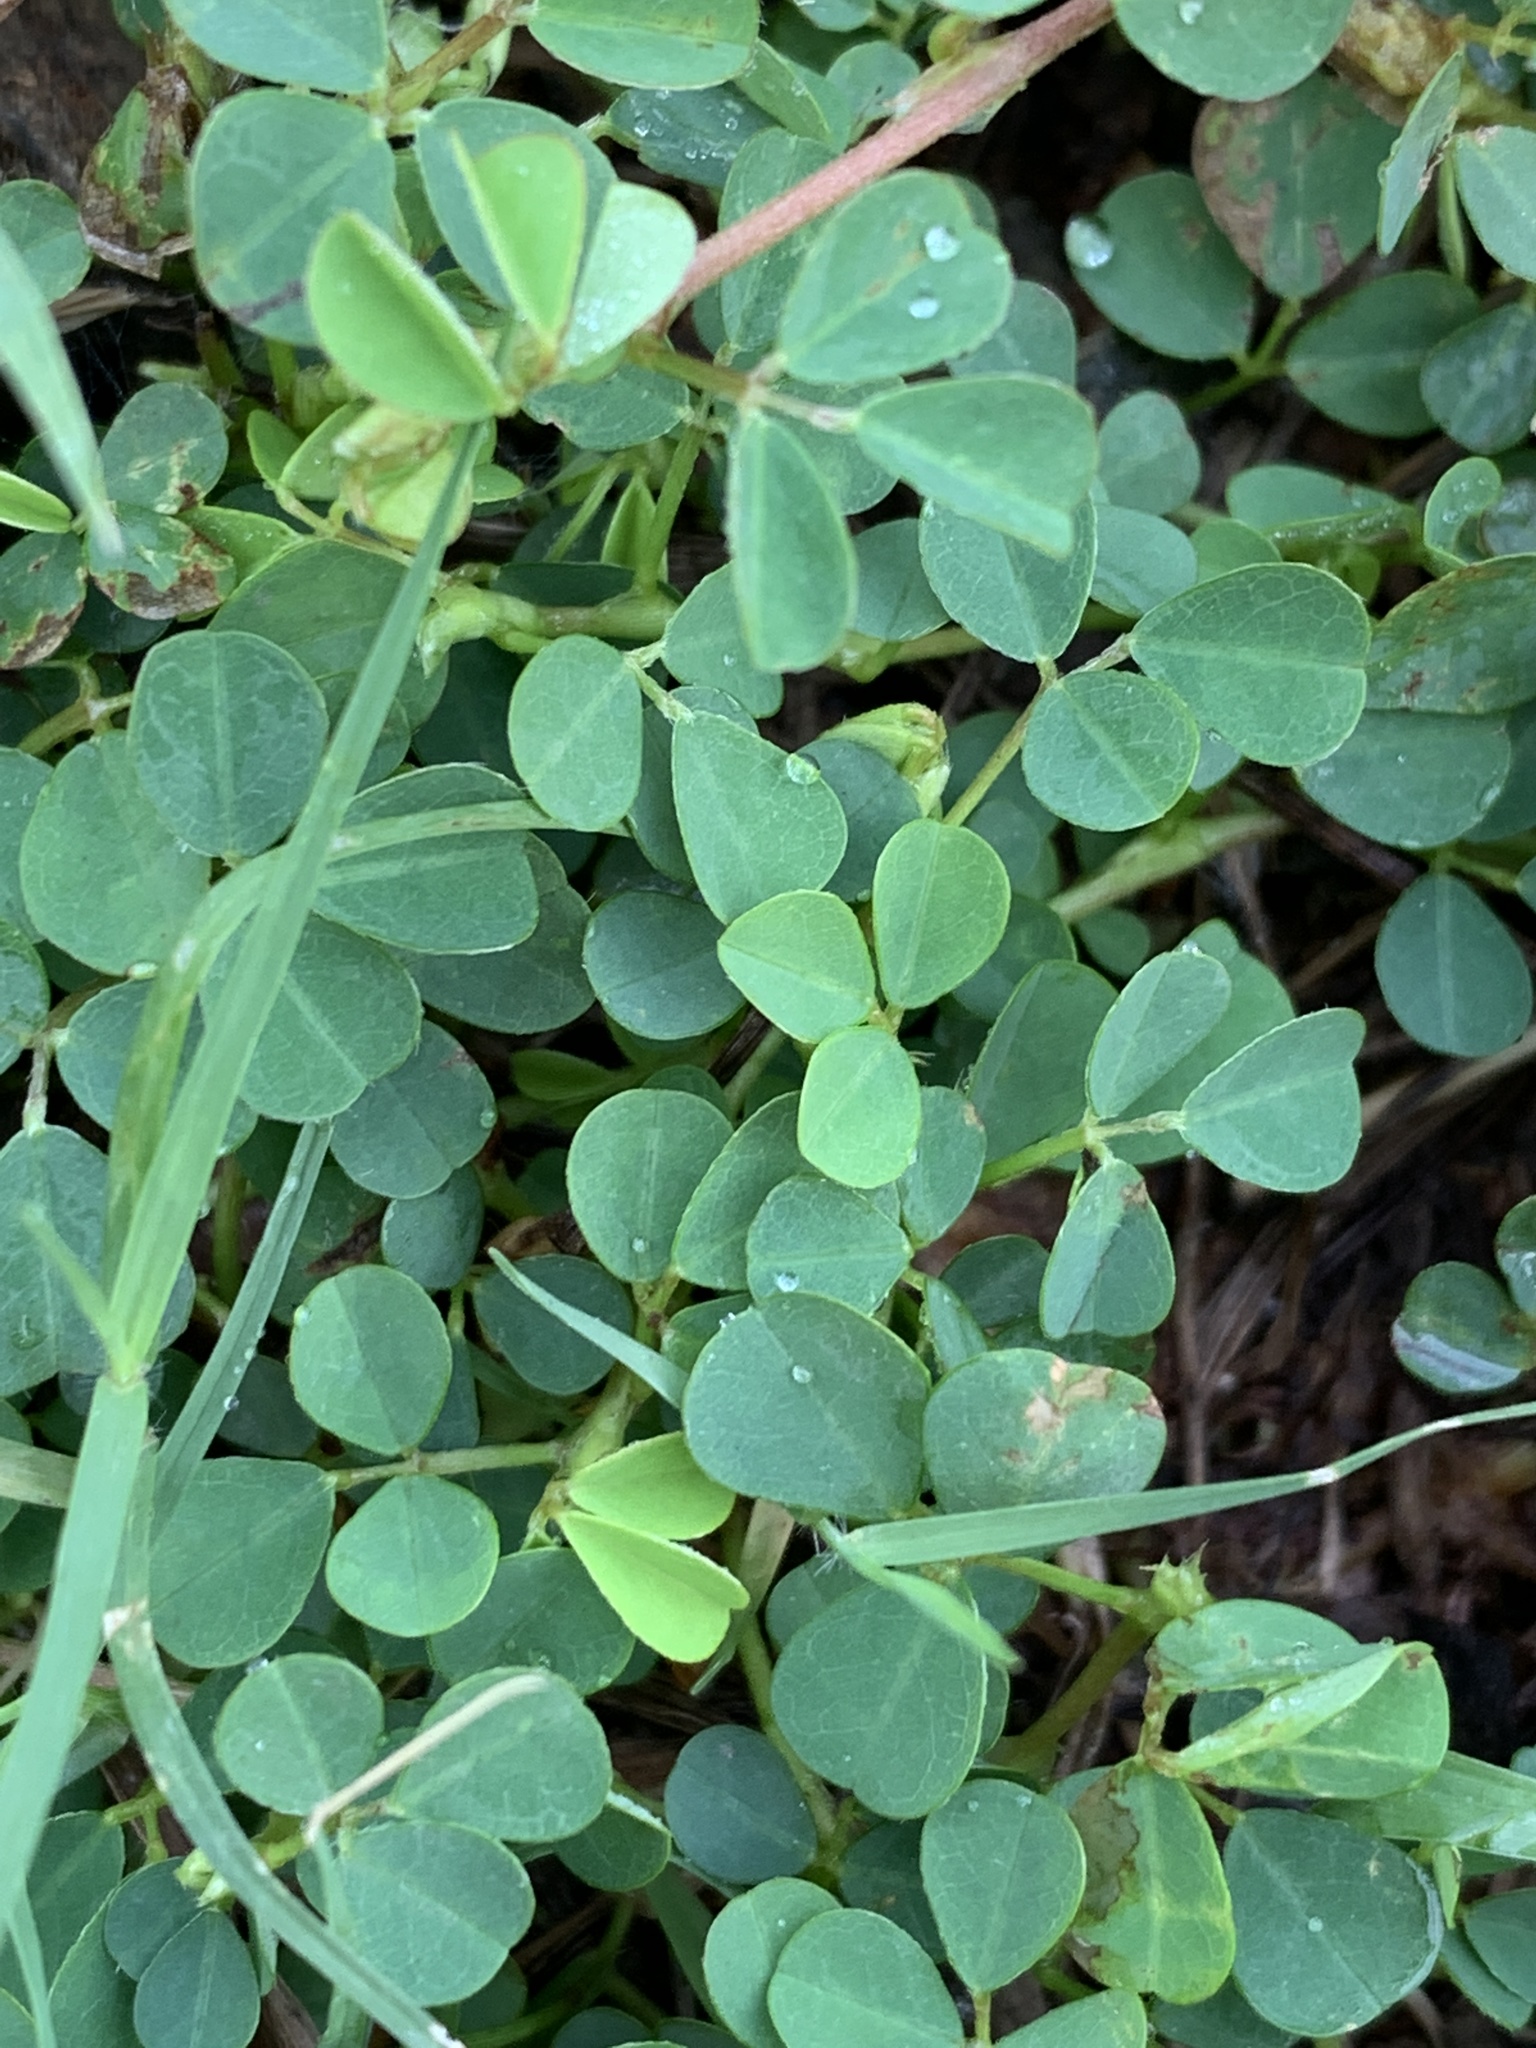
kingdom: Plantae
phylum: Tracheophyta
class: Magnoliopsida
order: Fabales
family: Fabaceae
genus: Grona
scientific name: Grona triflora
